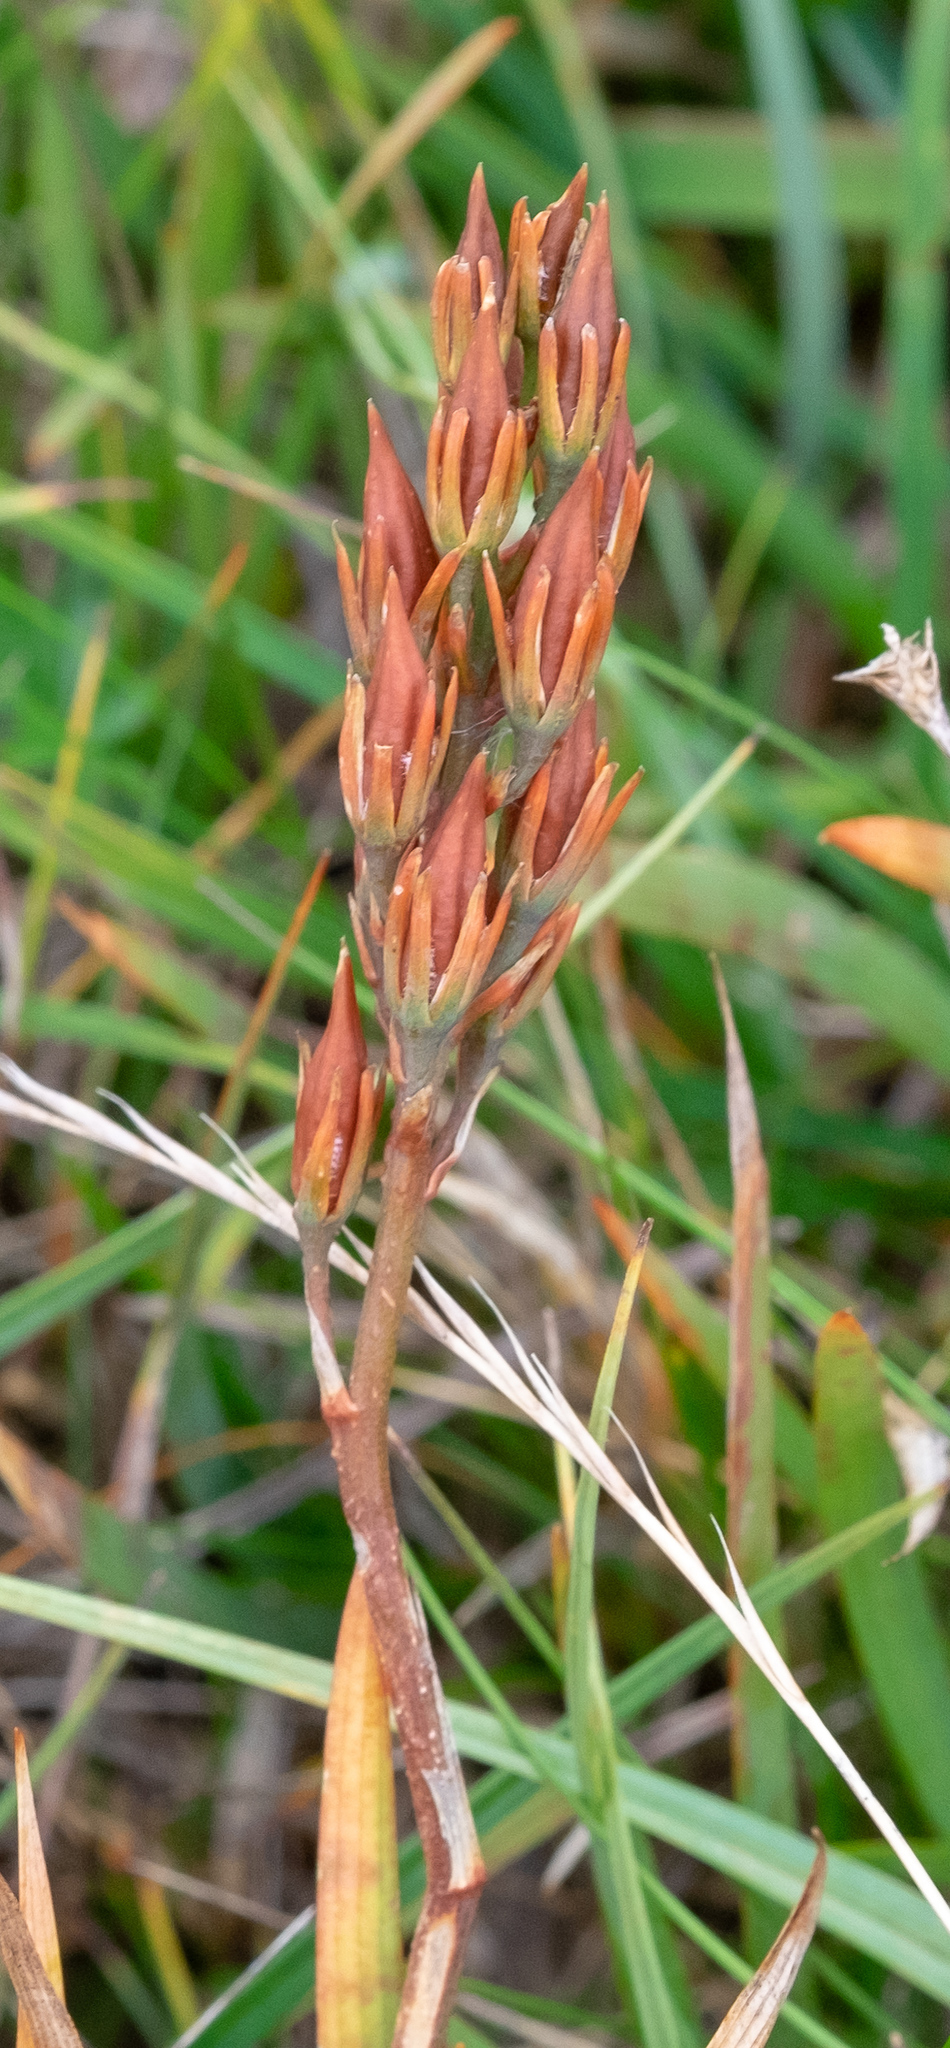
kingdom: Plantae
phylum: Tracheophyta
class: Liliopsida
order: Dioscoreales
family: Nartheciaceae
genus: Narthecium
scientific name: Narthecium ossifragum
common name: Bog asphodel
